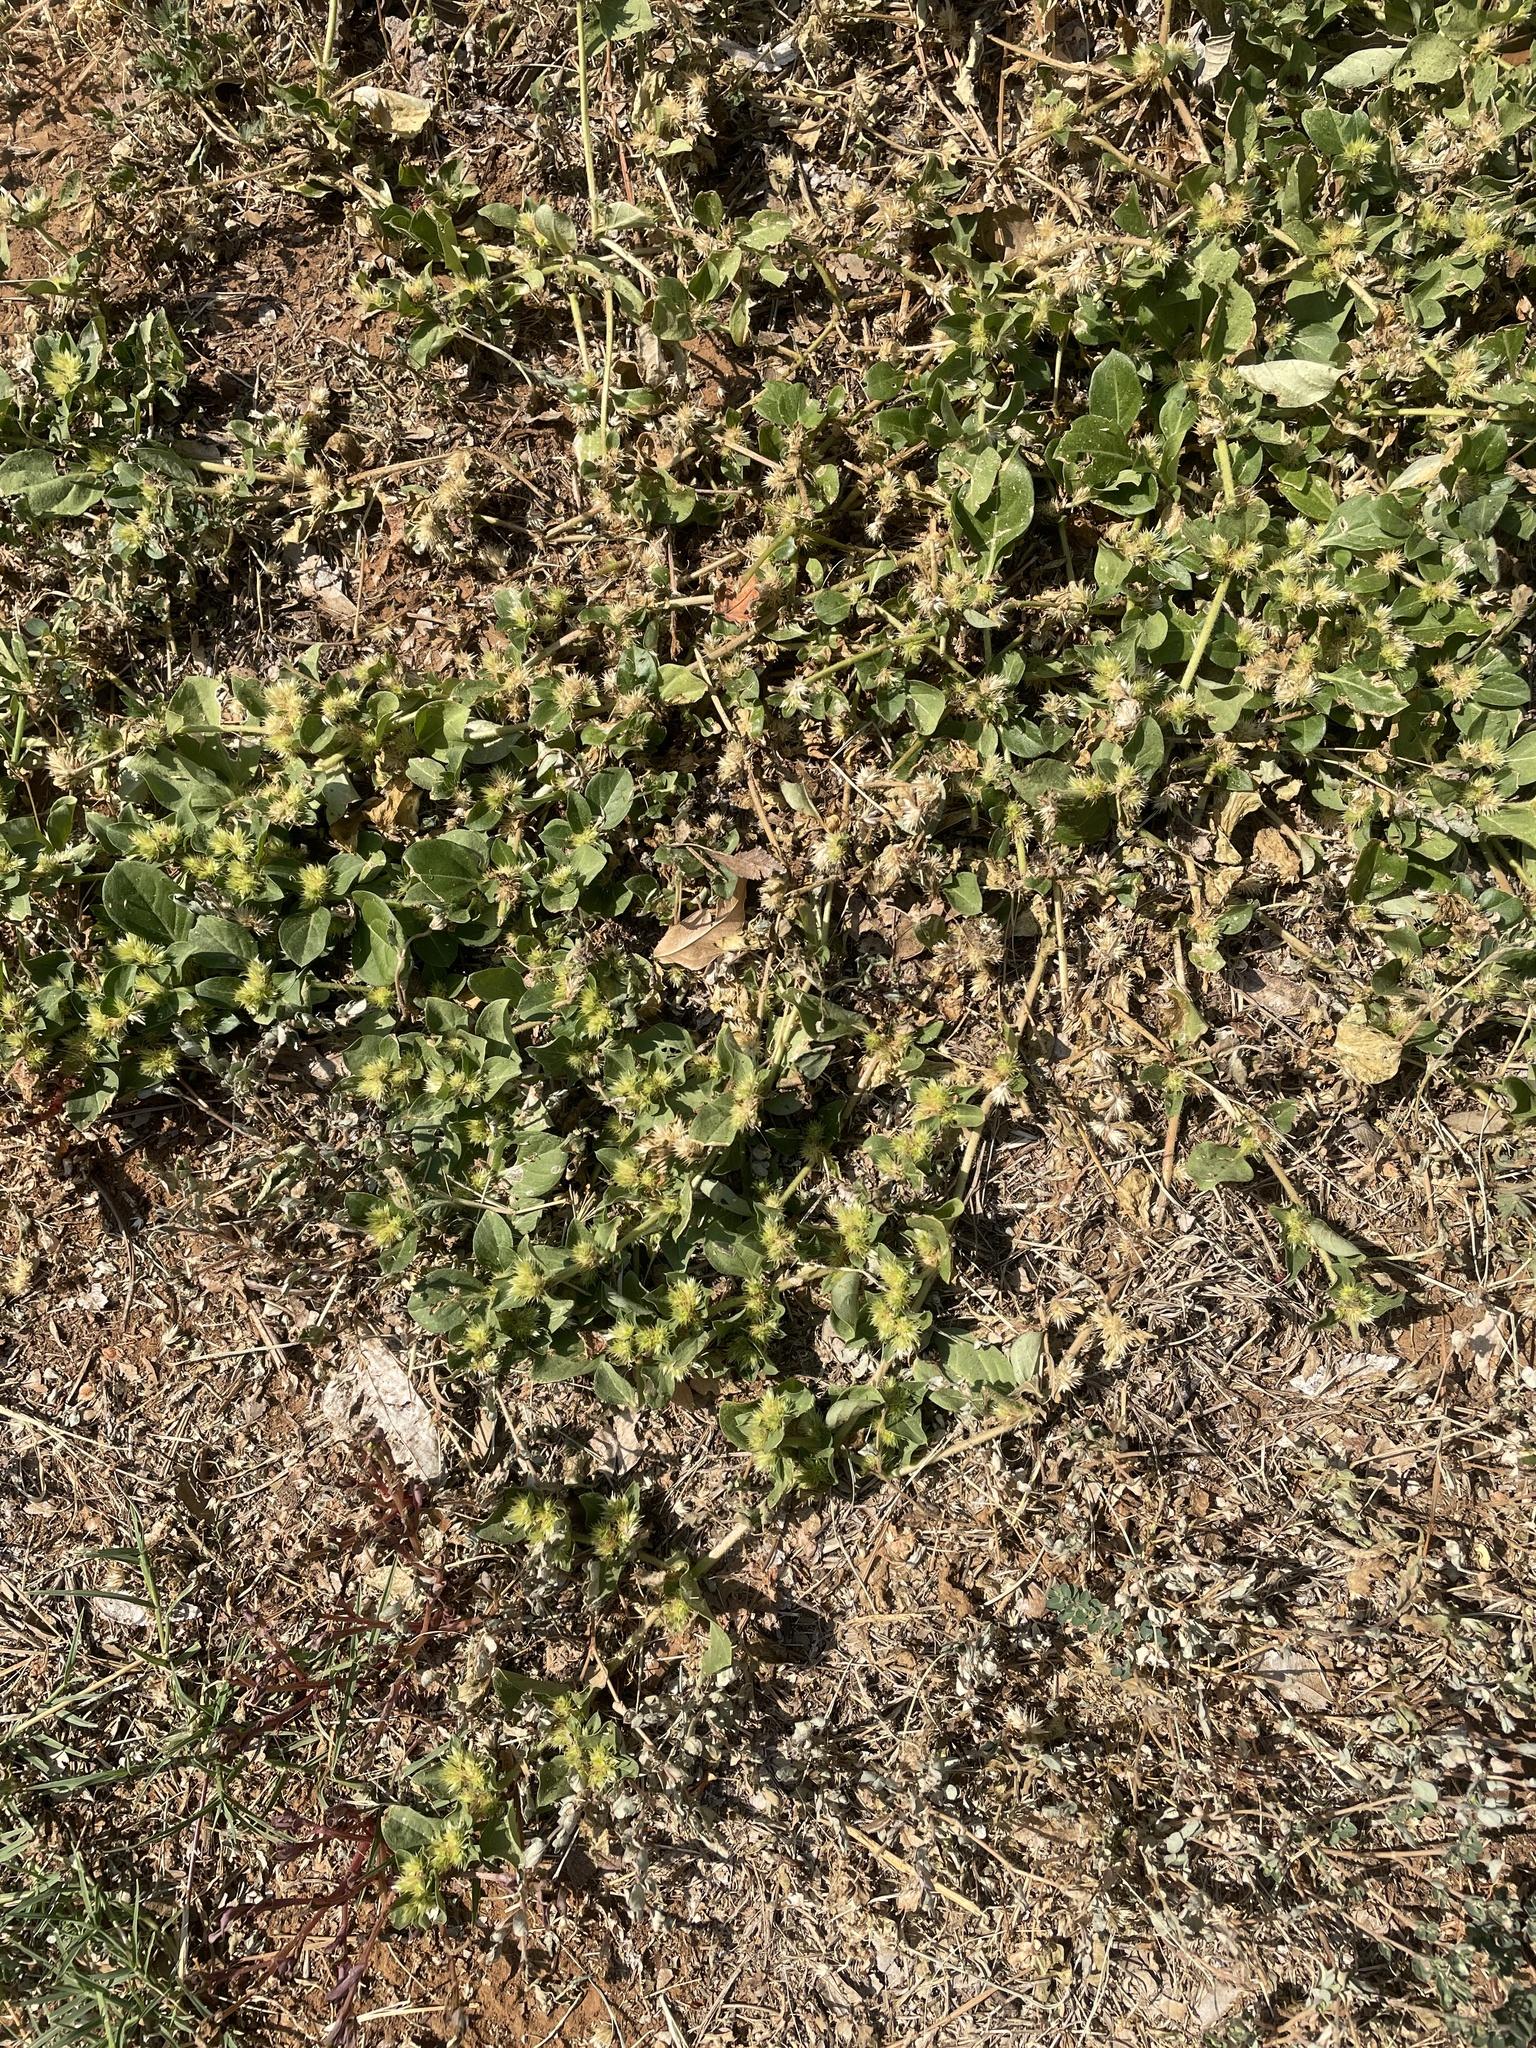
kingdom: Plantae
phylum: Tracheophyta
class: Magnoliopsida
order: Caryophyllales
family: Amaranthaceae
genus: Alternanthera
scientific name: Alternanthera pungens
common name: Khakiweed
